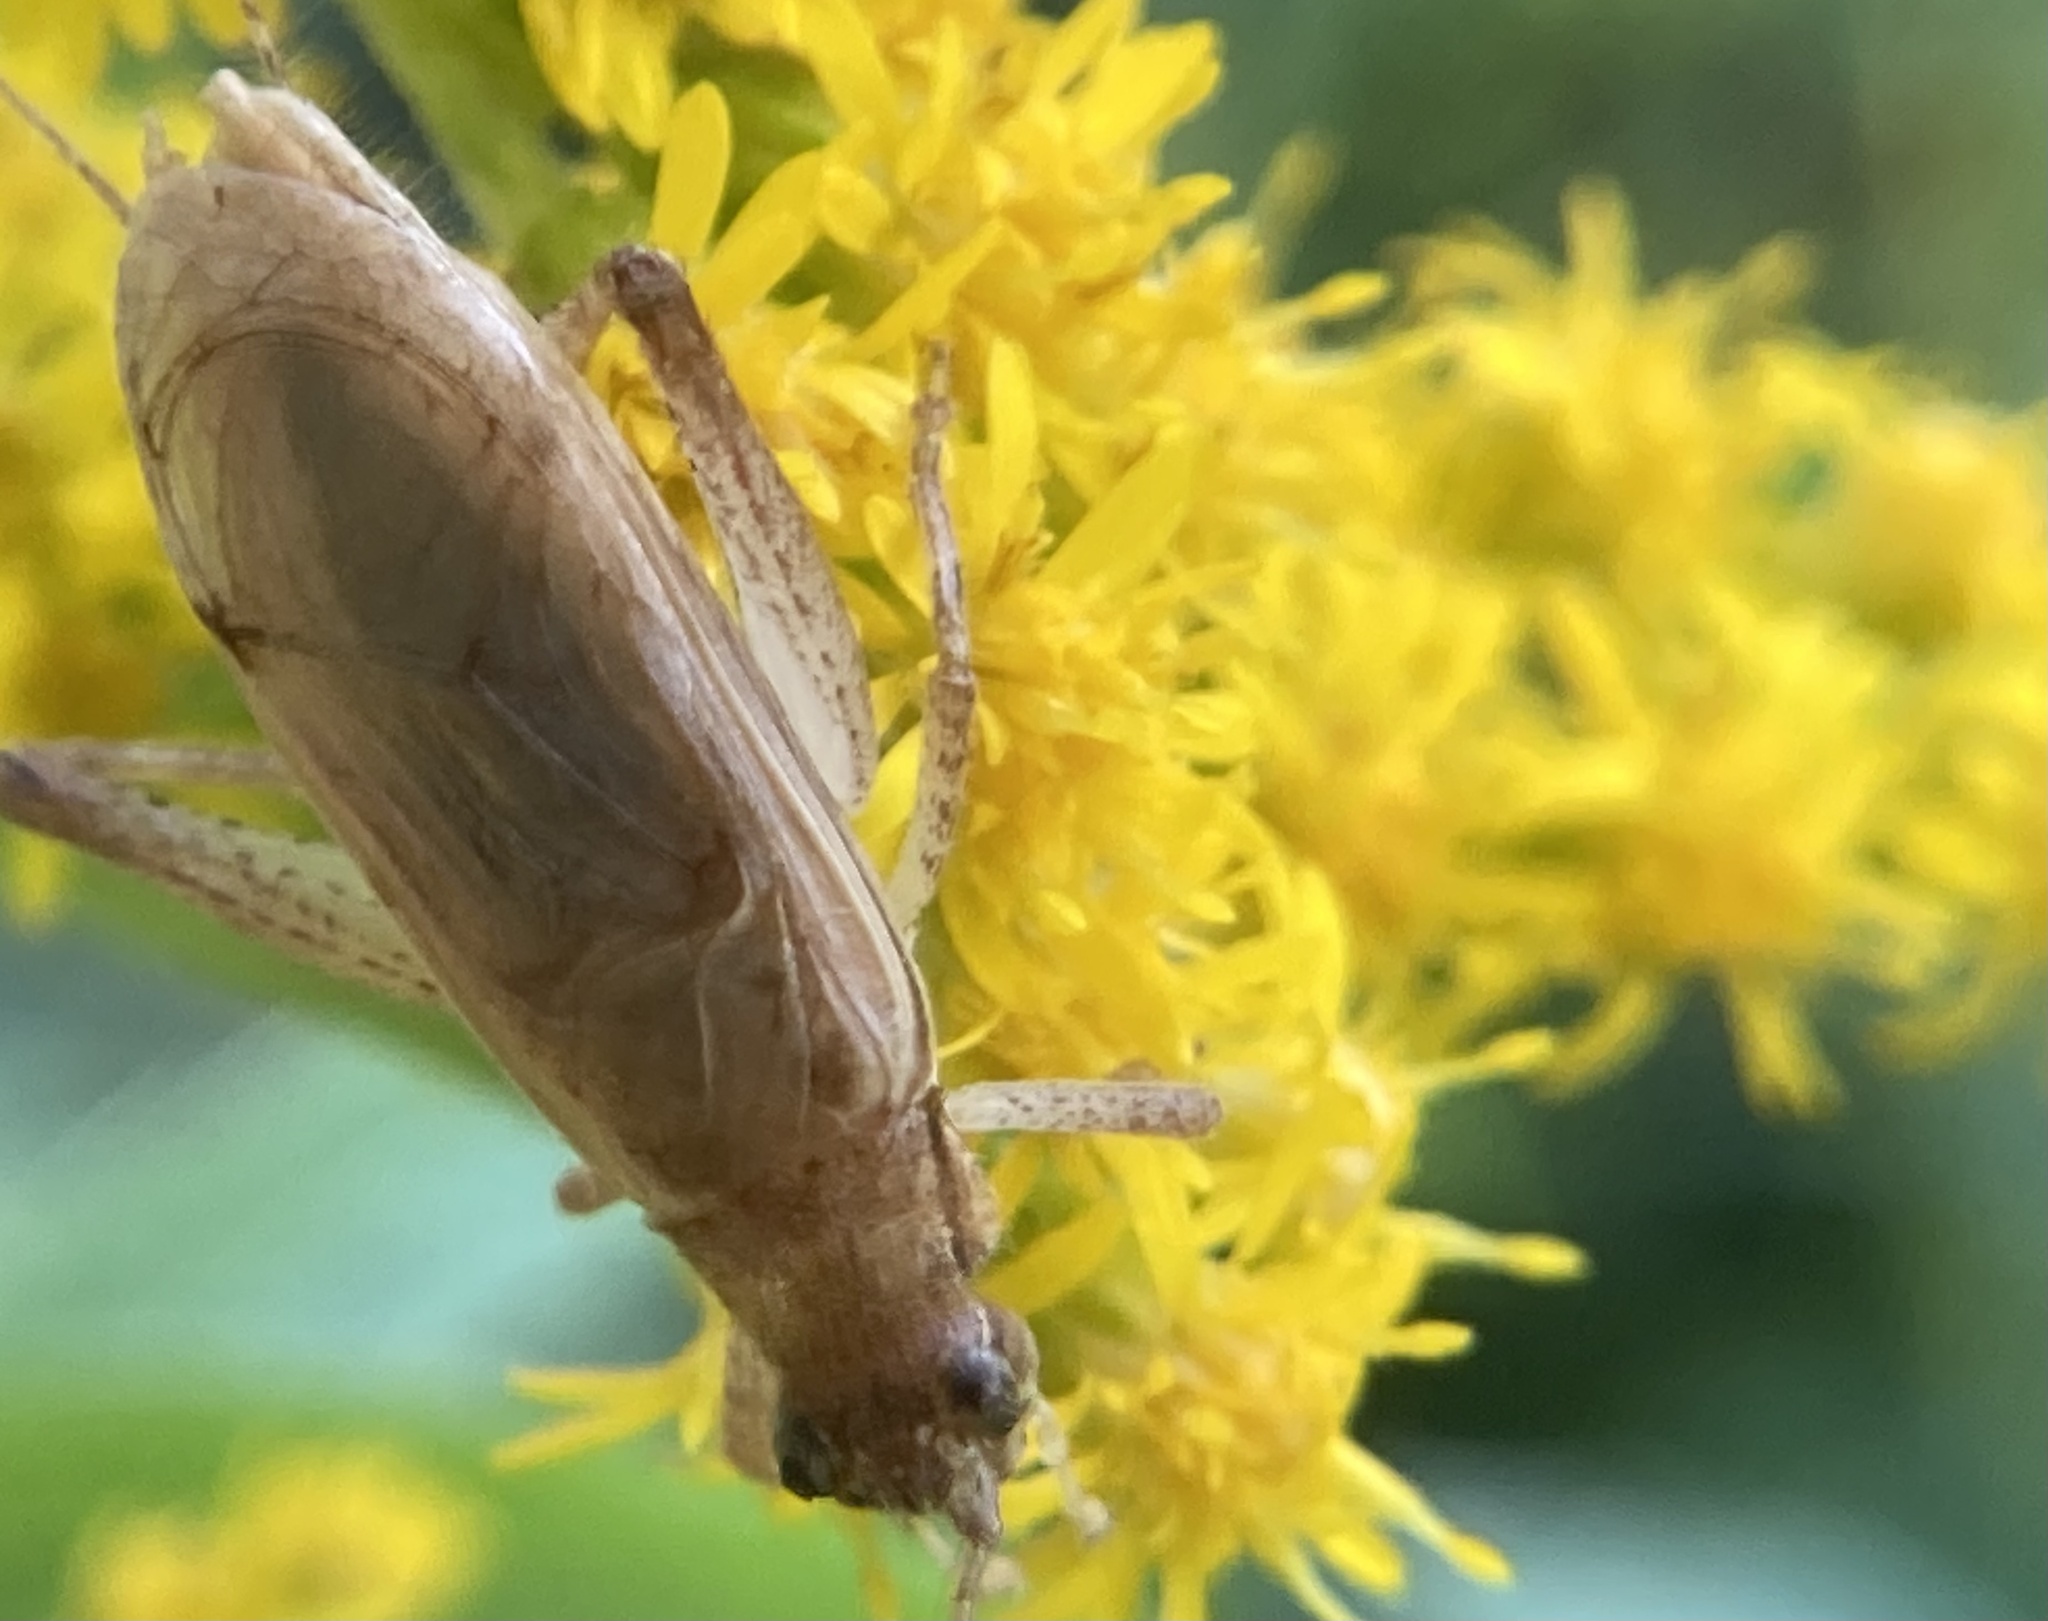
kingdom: Animalia
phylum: Arthropoda
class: Insecta
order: Orthoptera
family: Gryllidae
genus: Hapithus
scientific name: Hapithus saltator
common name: Jumping bush cricket
